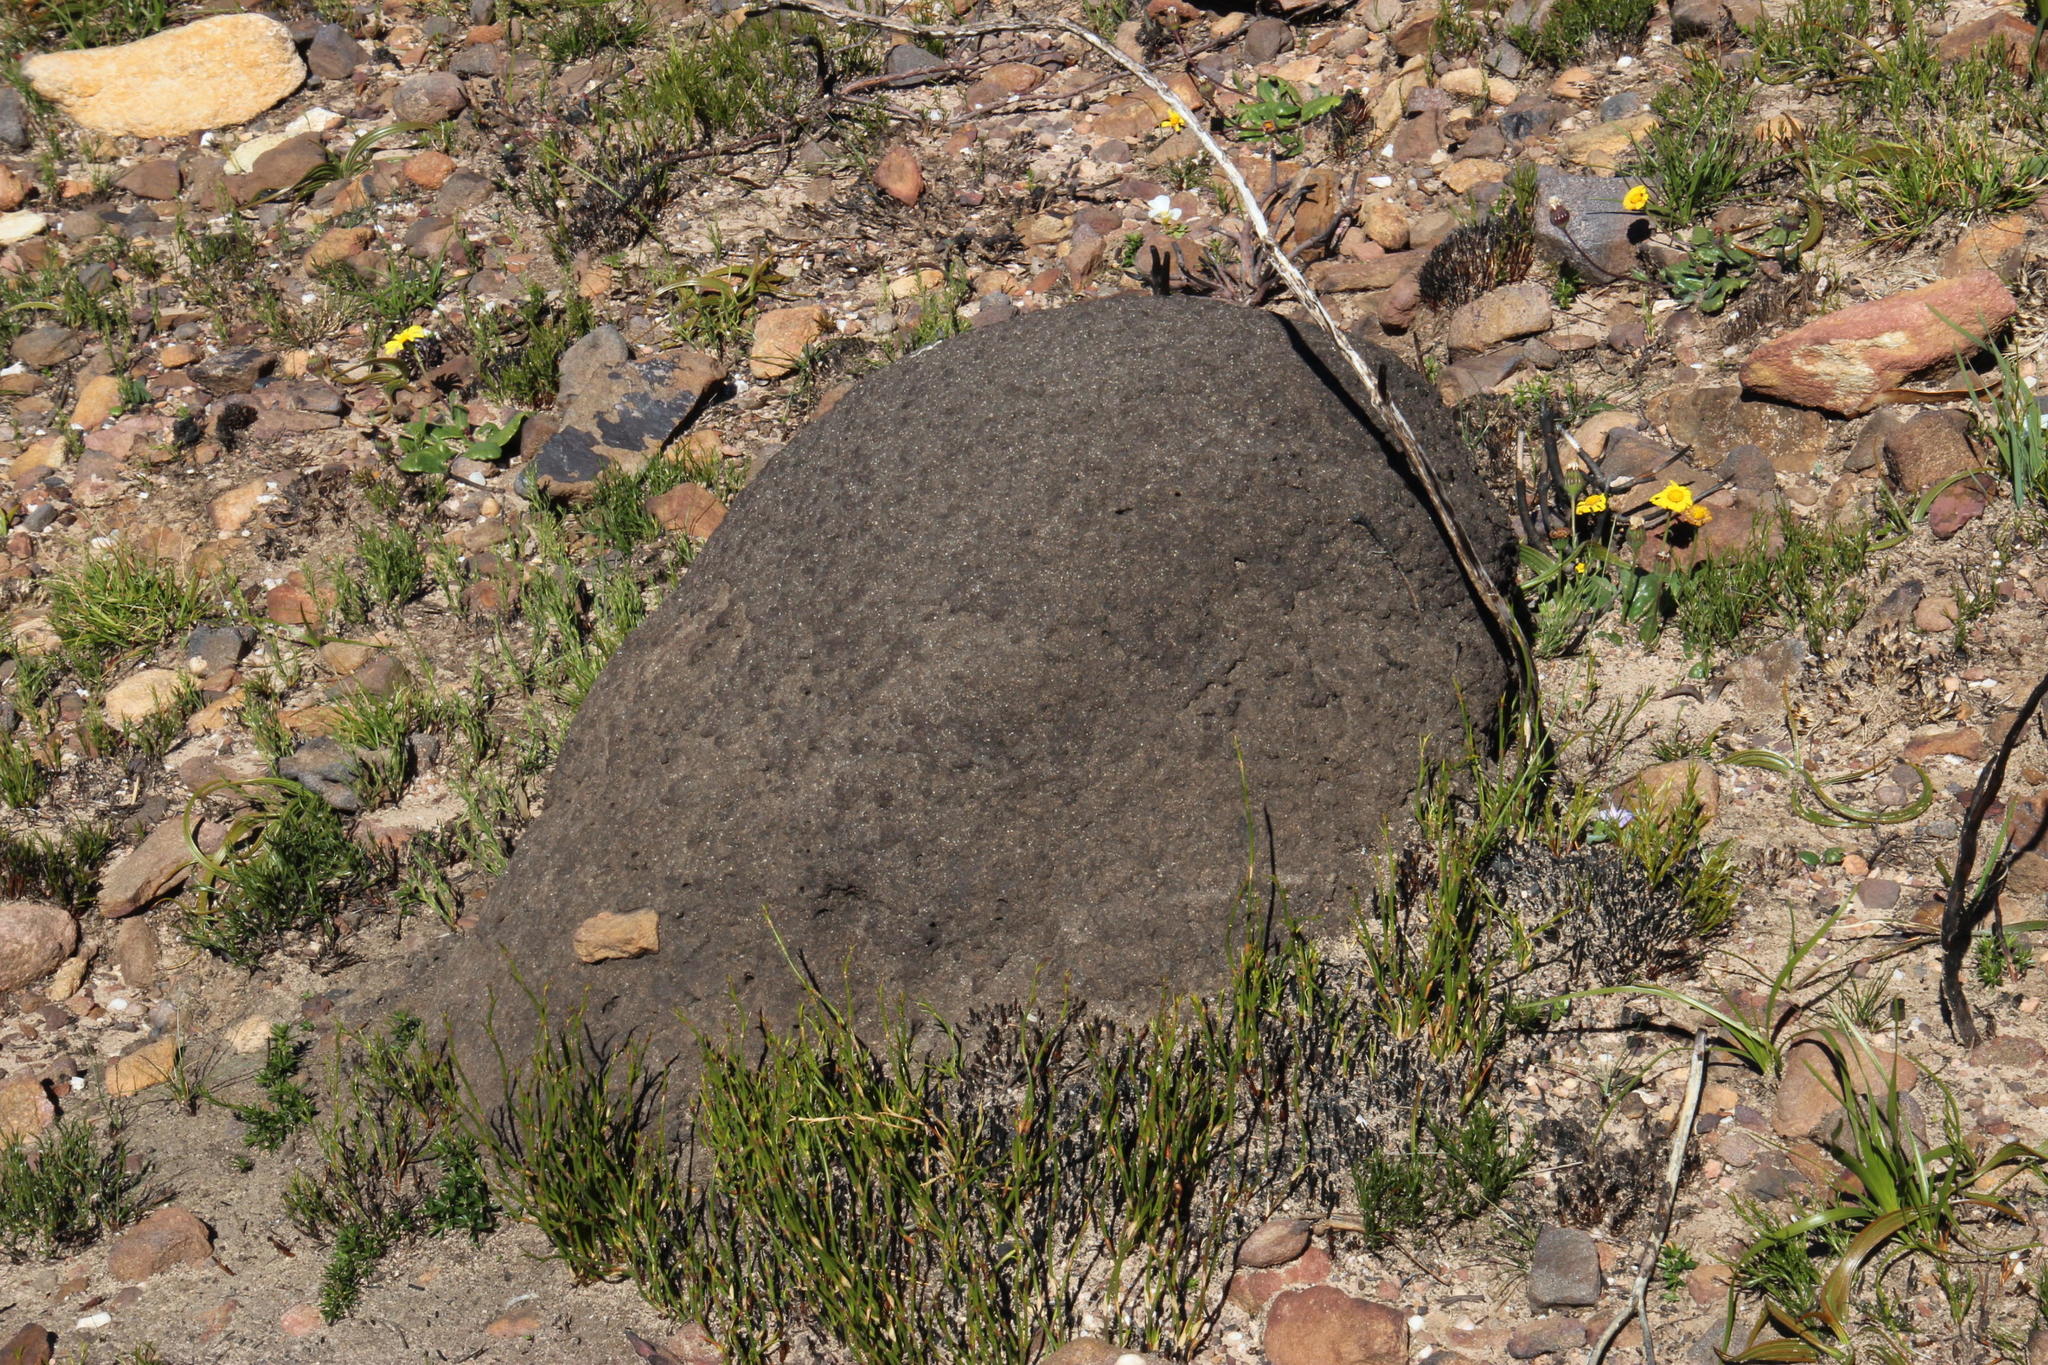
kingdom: Animalia
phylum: Arthropoda
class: Insecta
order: Blattodea
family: Termitidae
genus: Amitermes
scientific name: Amitermes hastatus
